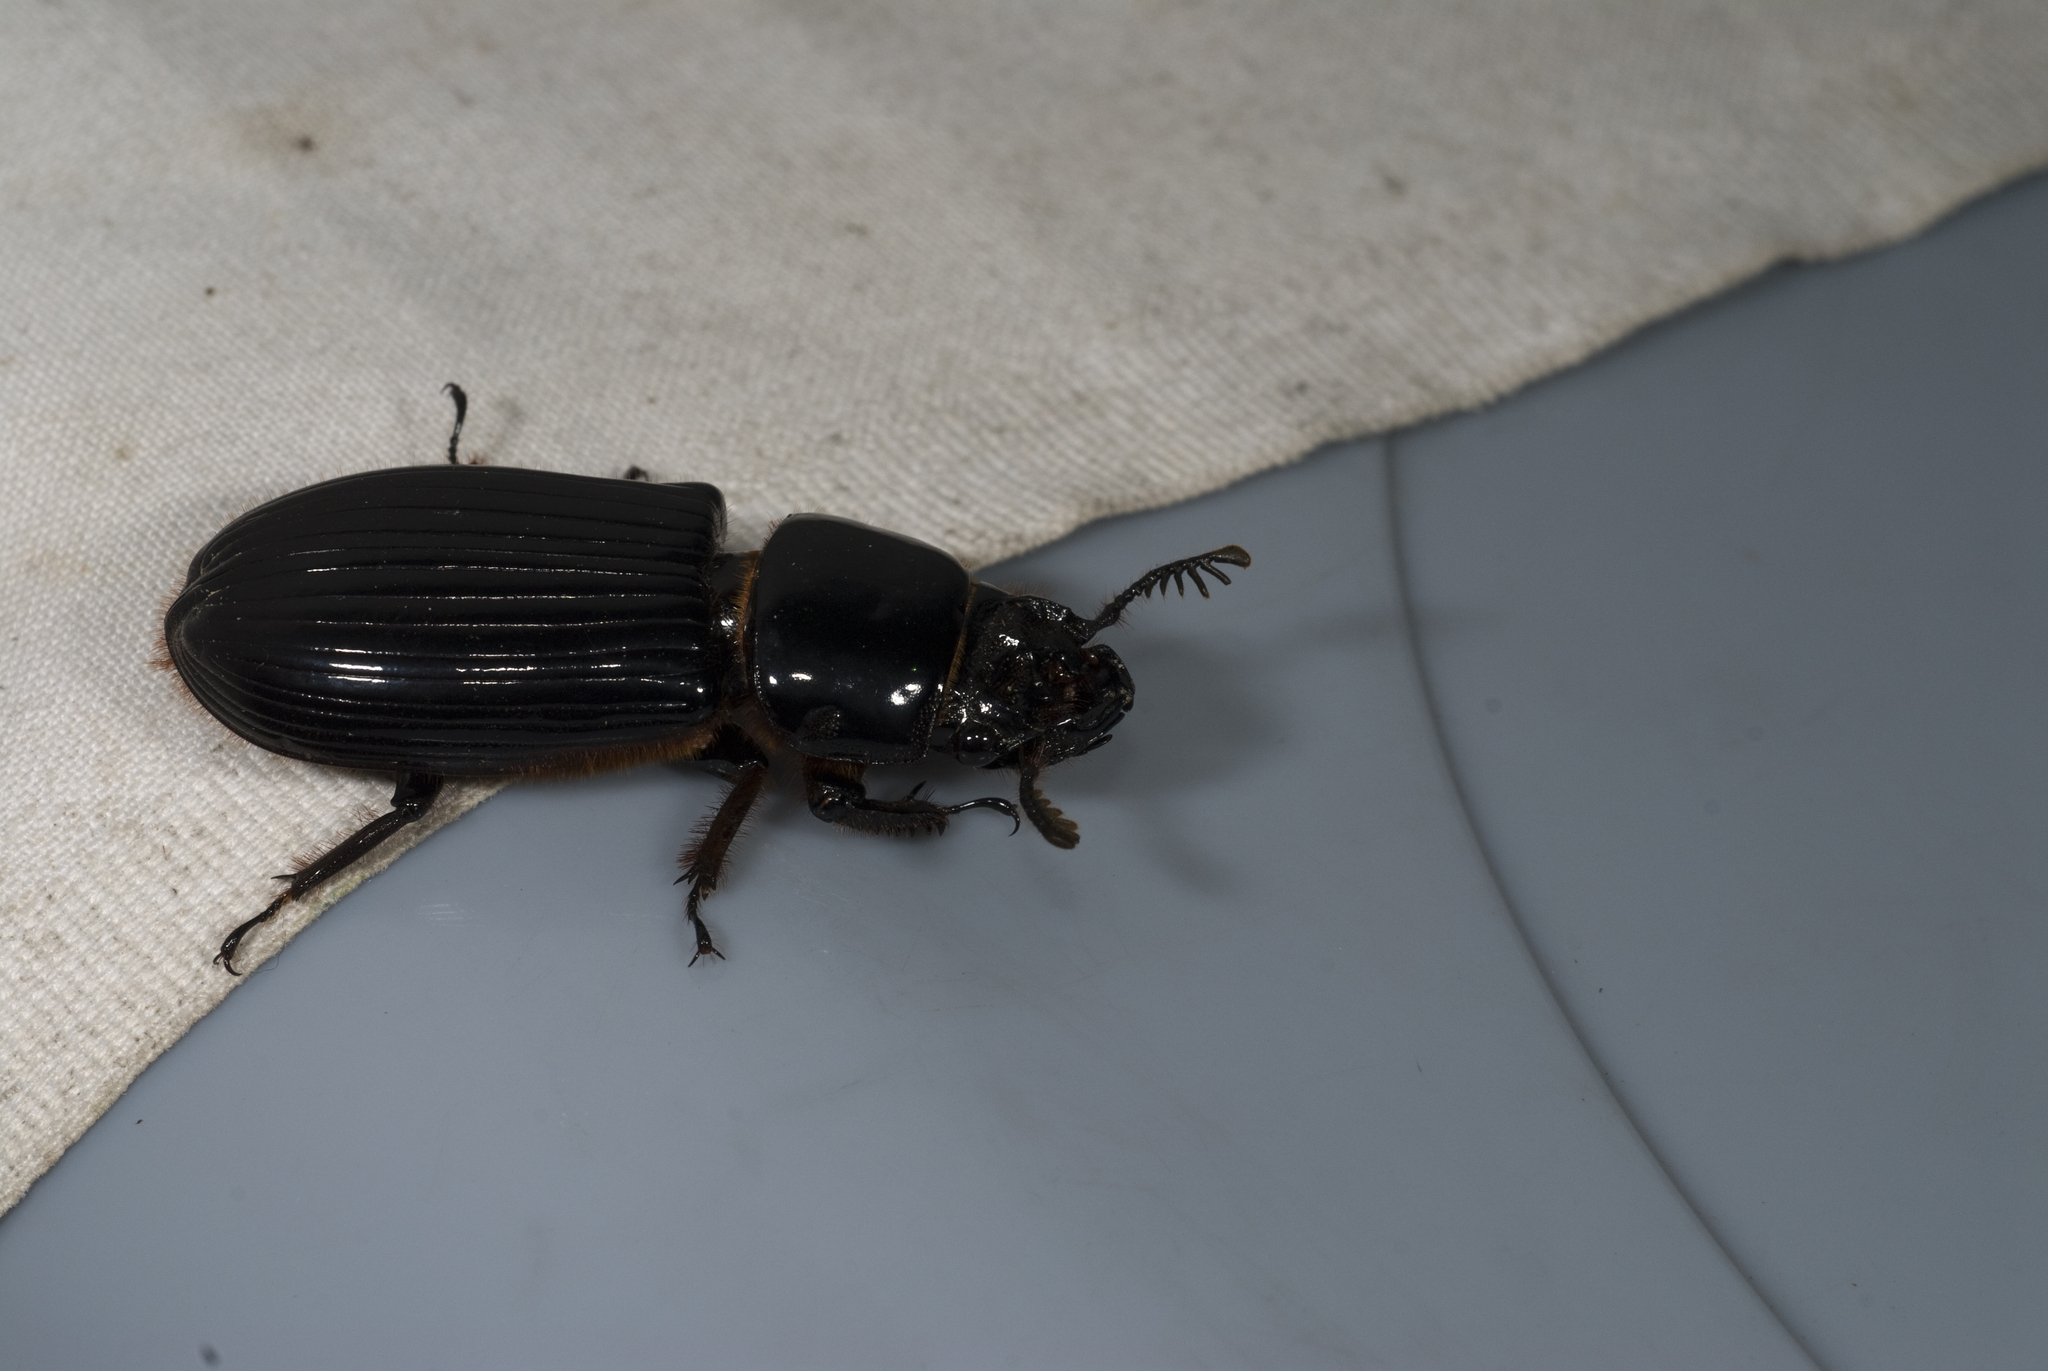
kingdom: Animalia
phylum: Arthropoda
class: Insecta
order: Coleoptera
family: Passalidae
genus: Aceraius
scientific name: Aceraius grandis
